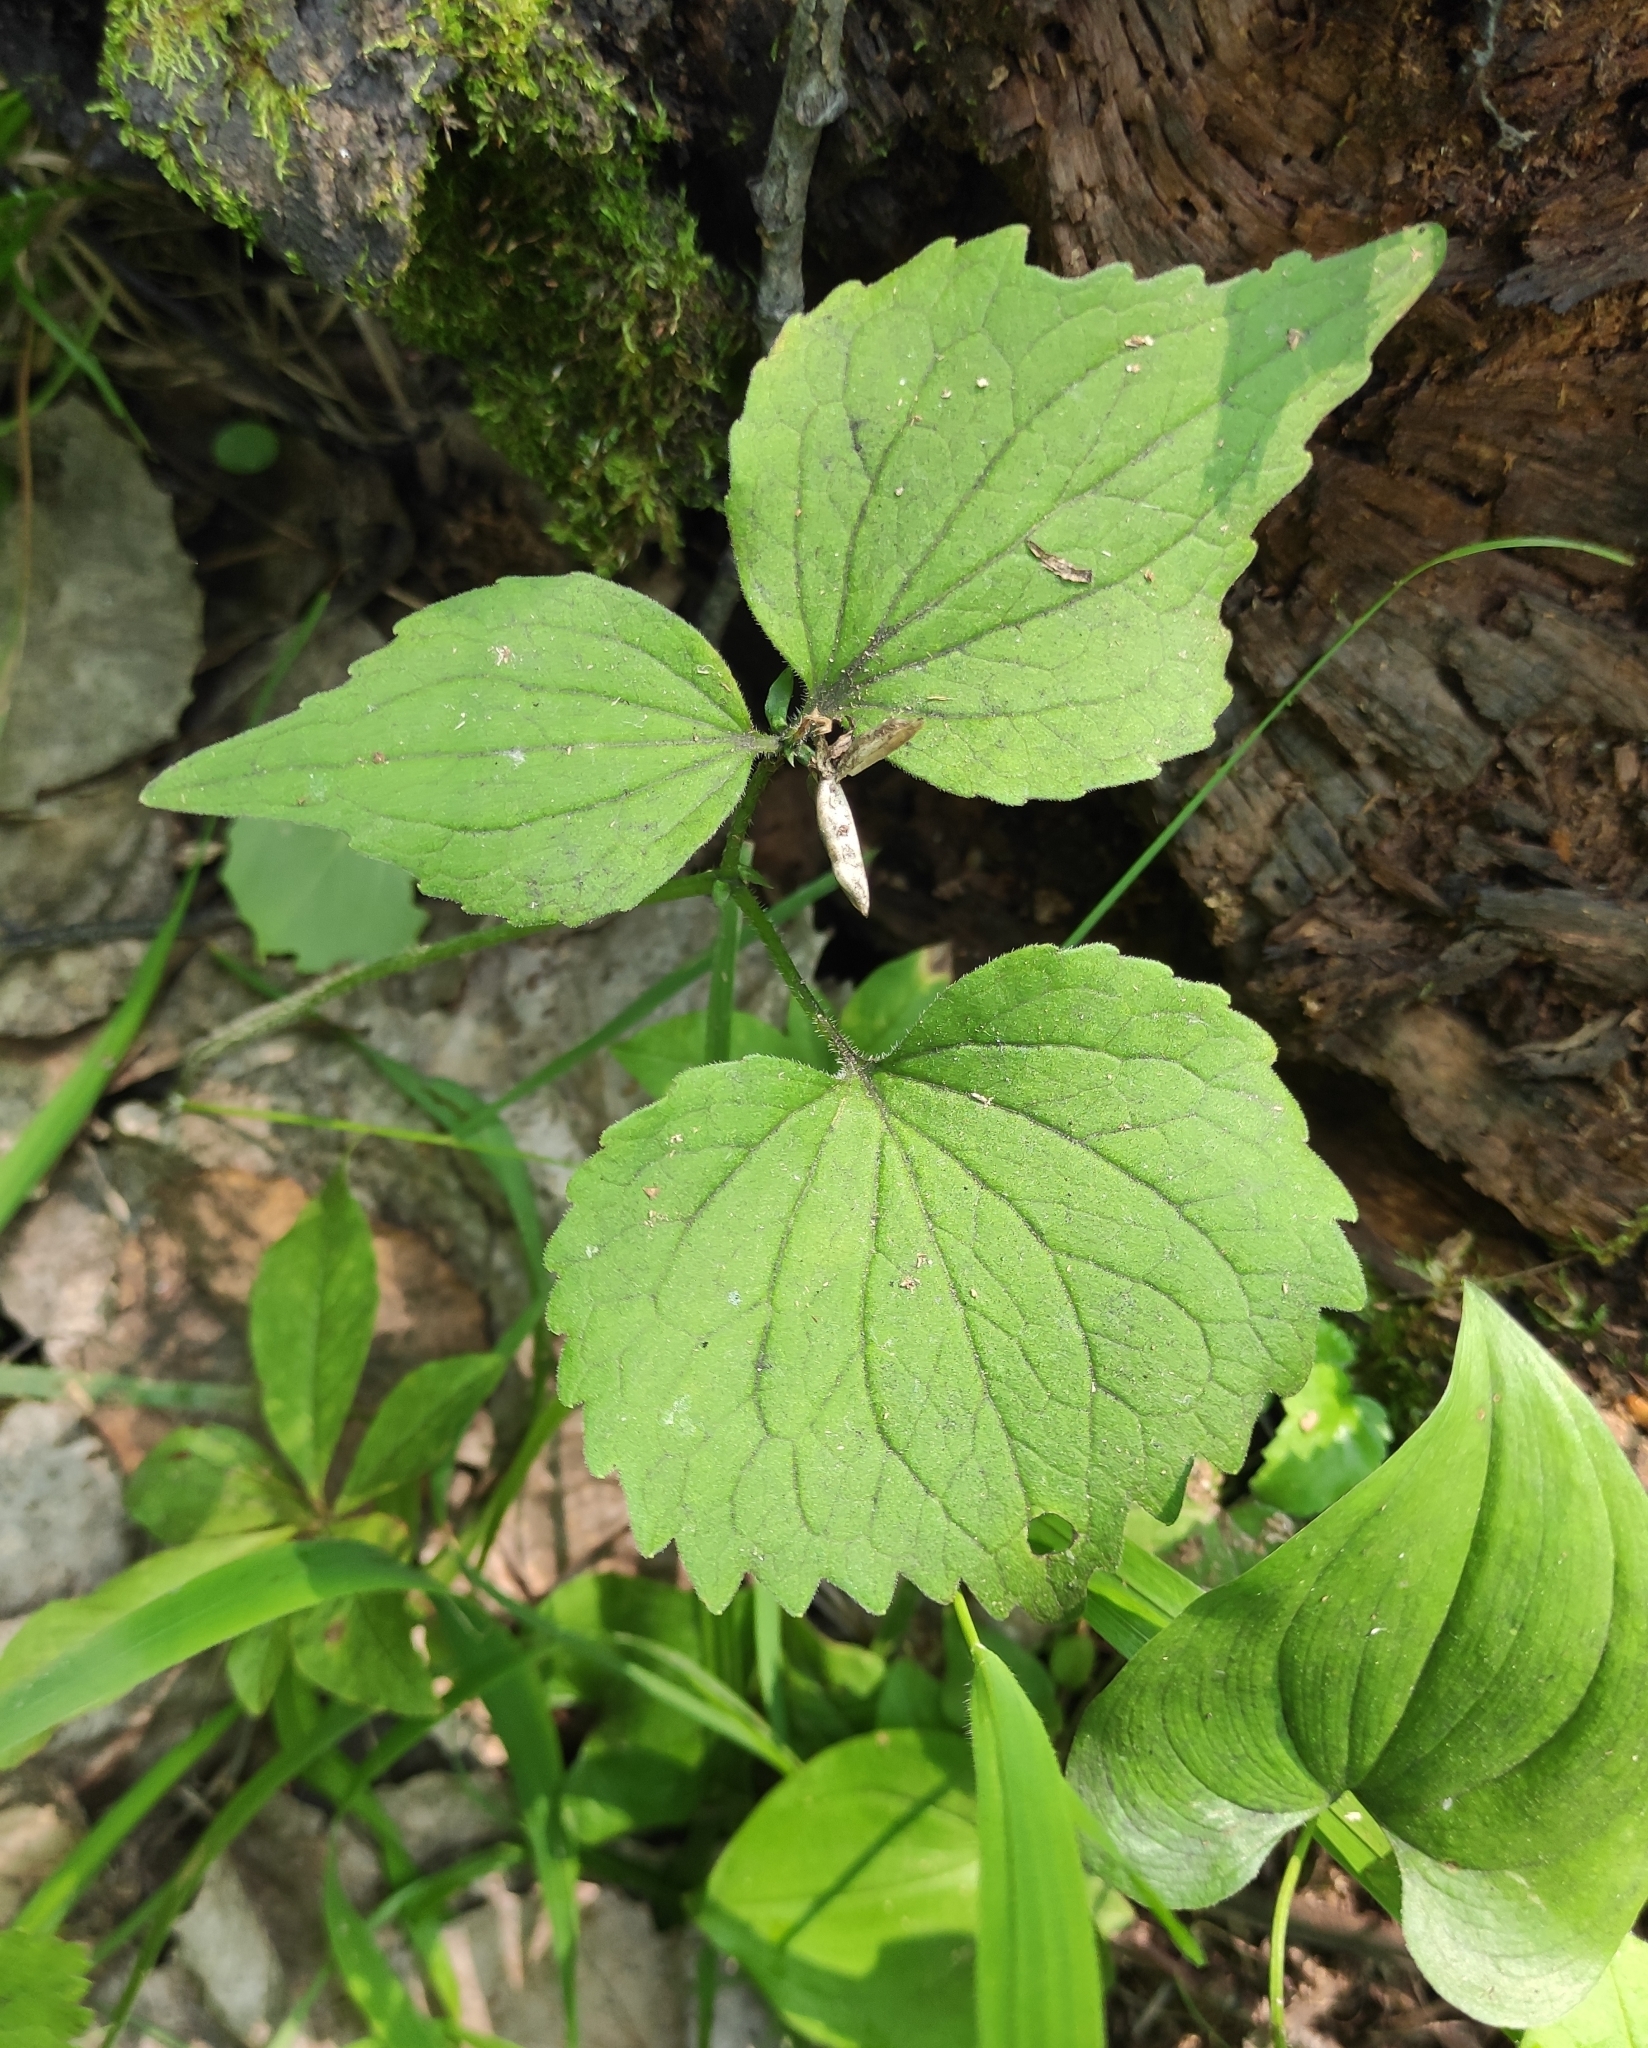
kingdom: Plantae
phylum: Tracheophyta
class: Magnoliopsida
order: Malpighiales
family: Violaceae
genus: Viola
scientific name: Viola uniflora
